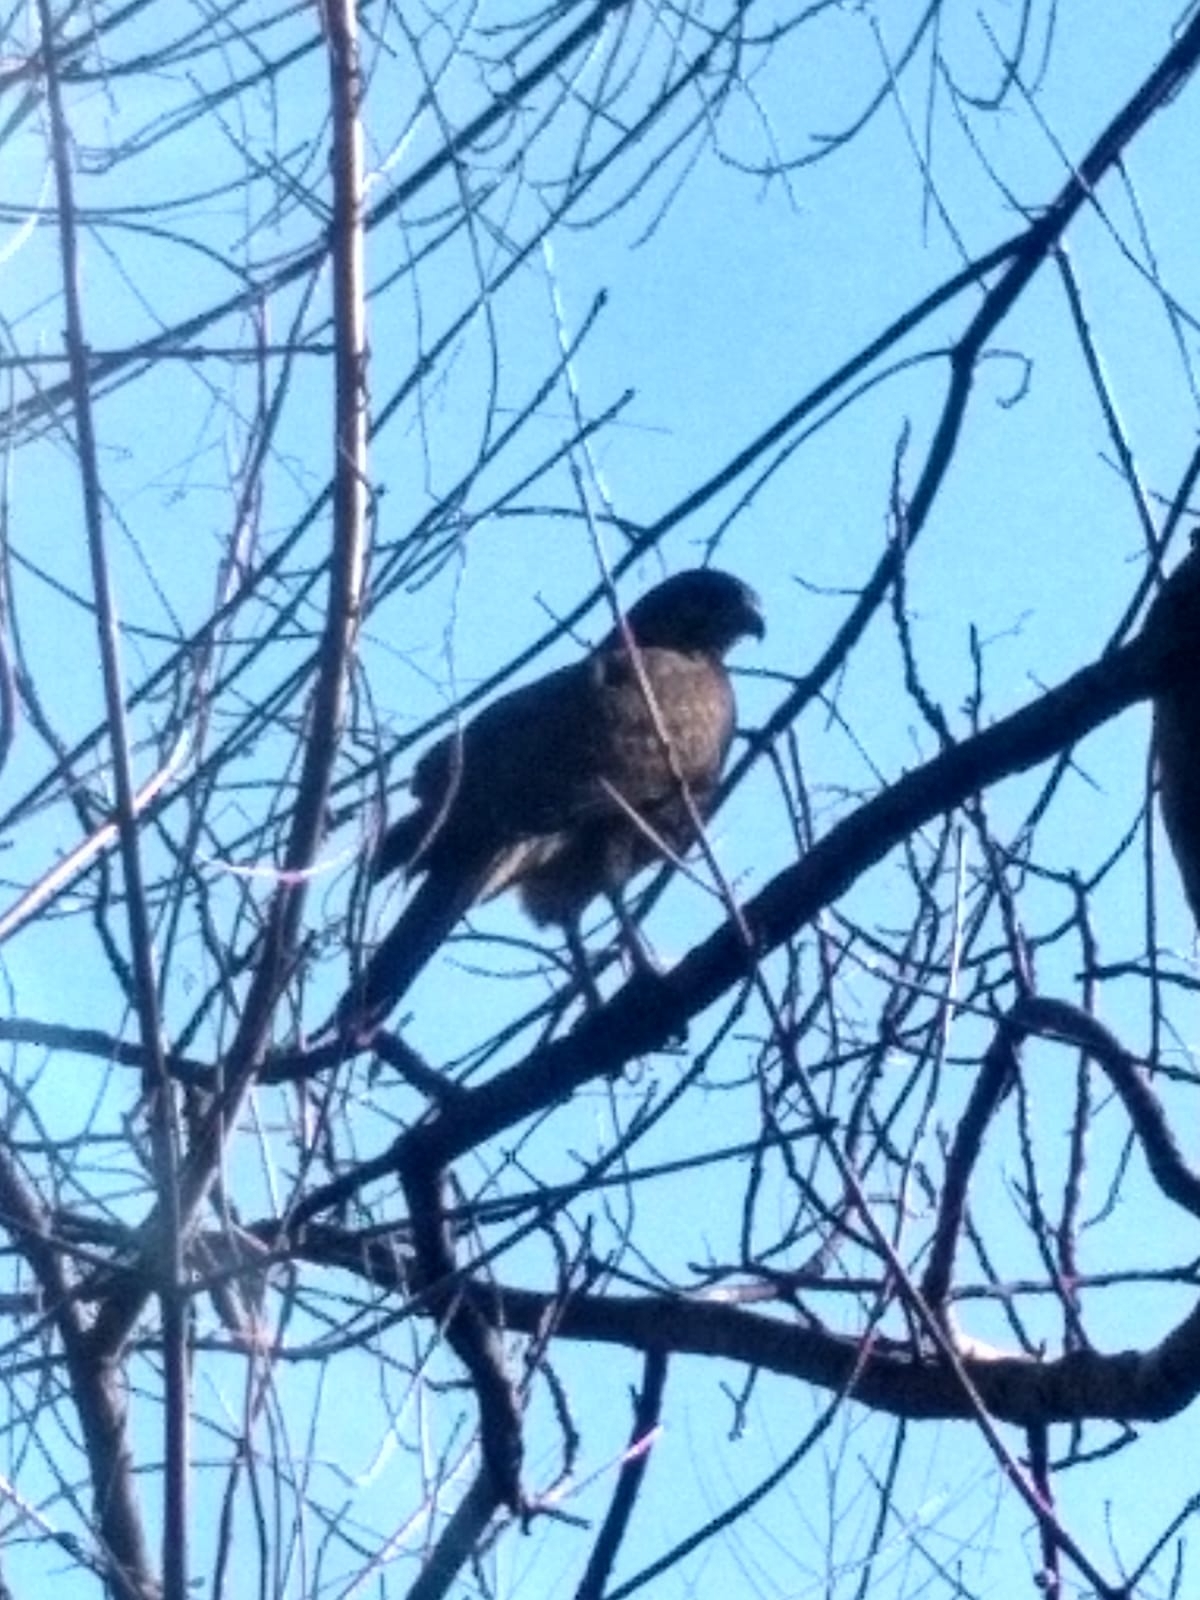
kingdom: Animalia
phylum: Chordata
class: Aves
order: Accipitriformes
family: Accipitridae
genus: Parabuteo
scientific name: Parabuteo unicinctus
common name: Harris's hawk
